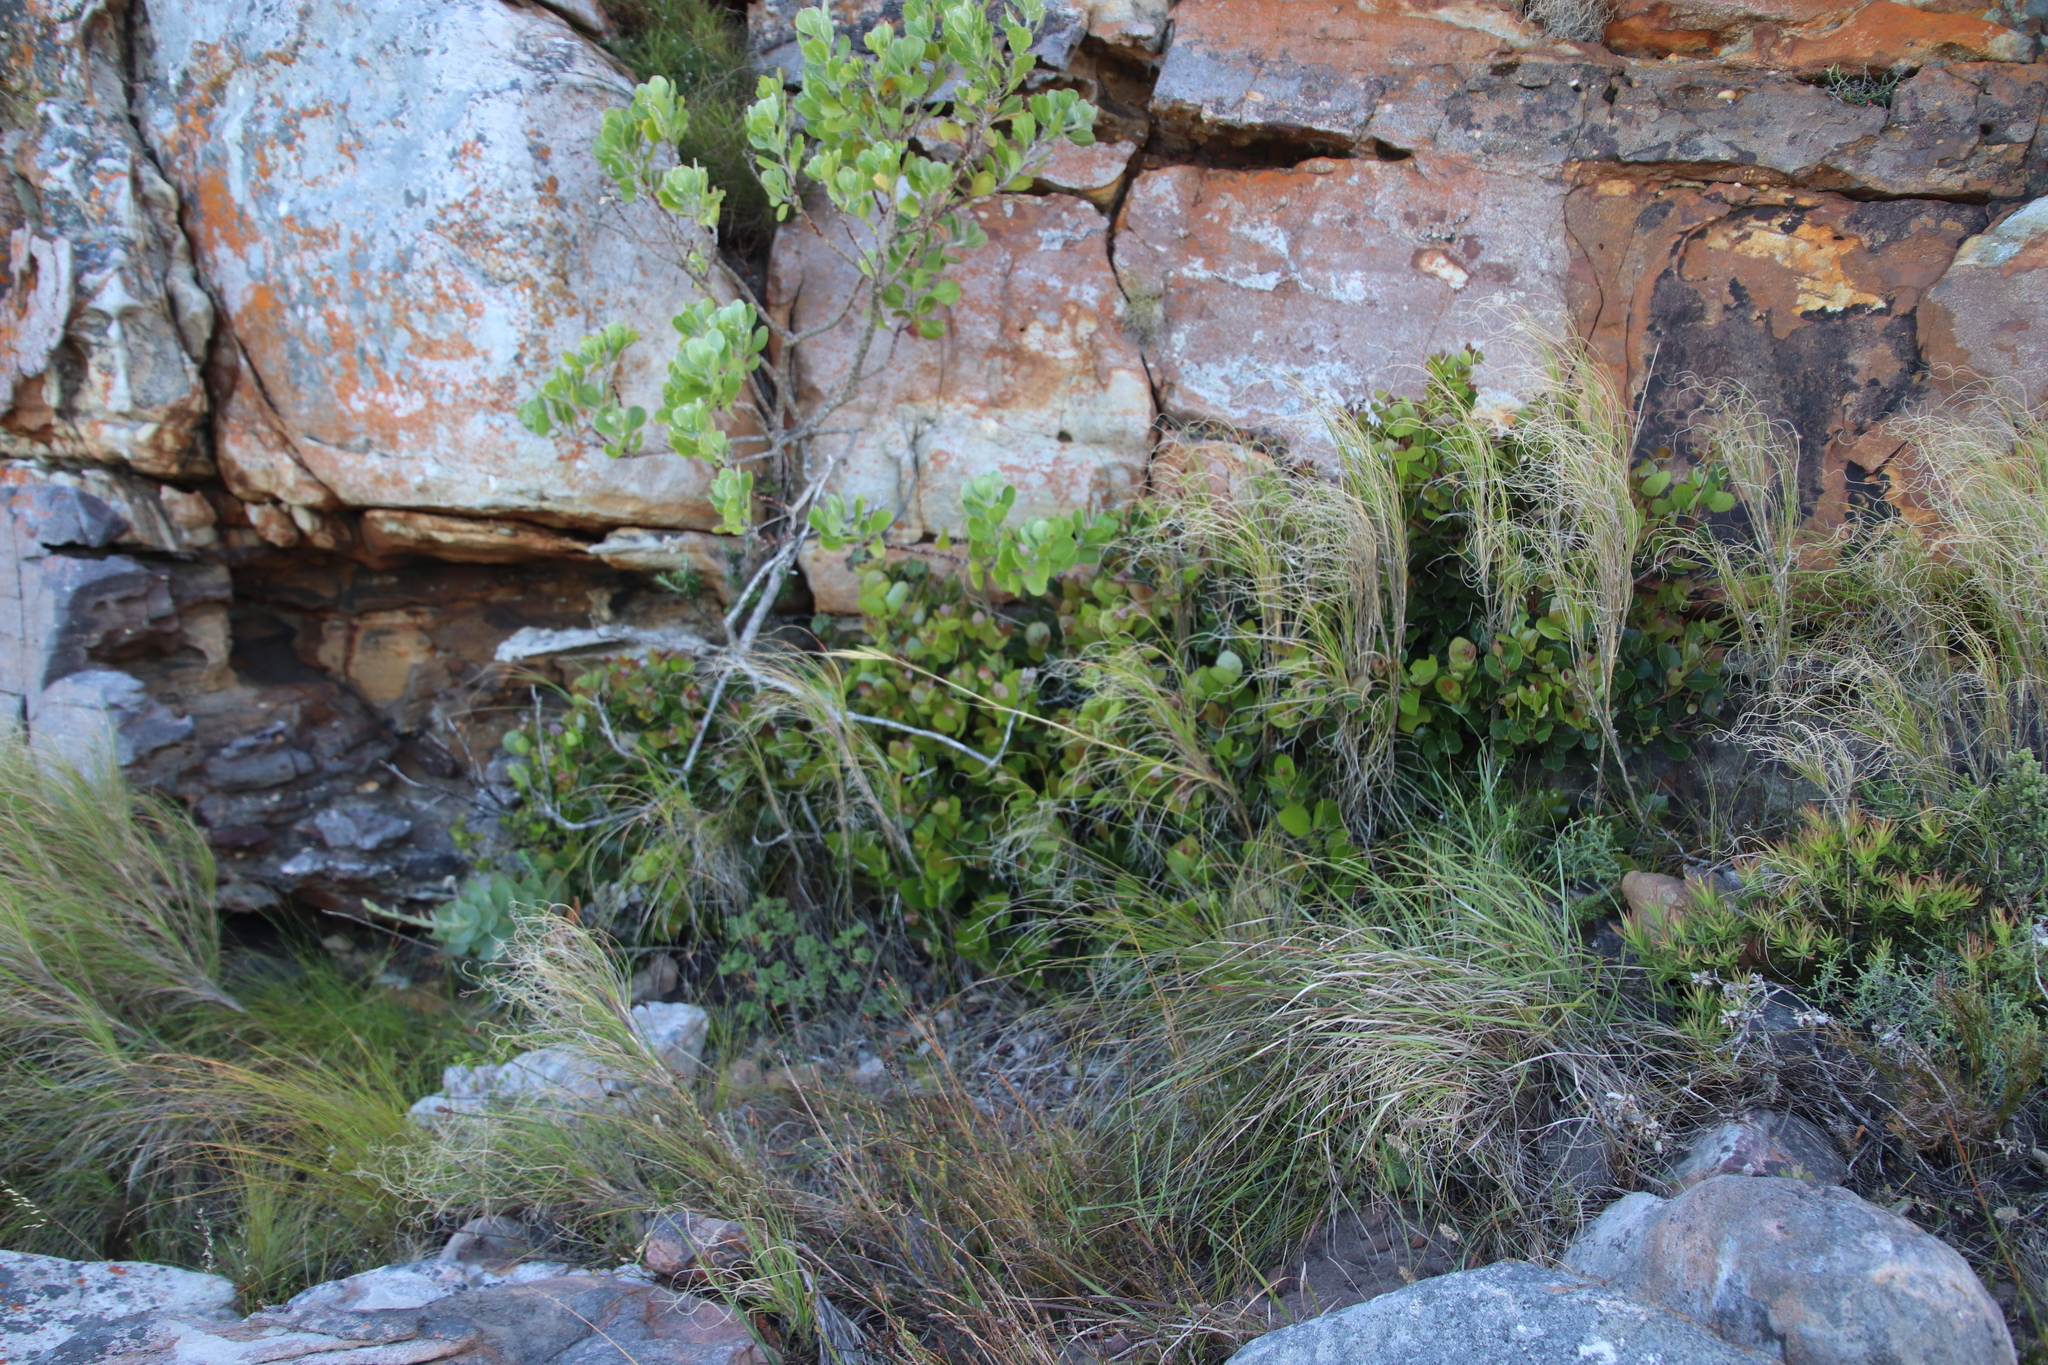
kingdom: Plantae
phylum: Tracheophyta
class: Magnoliopsida
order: Celastrales
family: Celastraceae
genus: Cassine
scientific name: Cassine peragua
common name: Cape saffron
